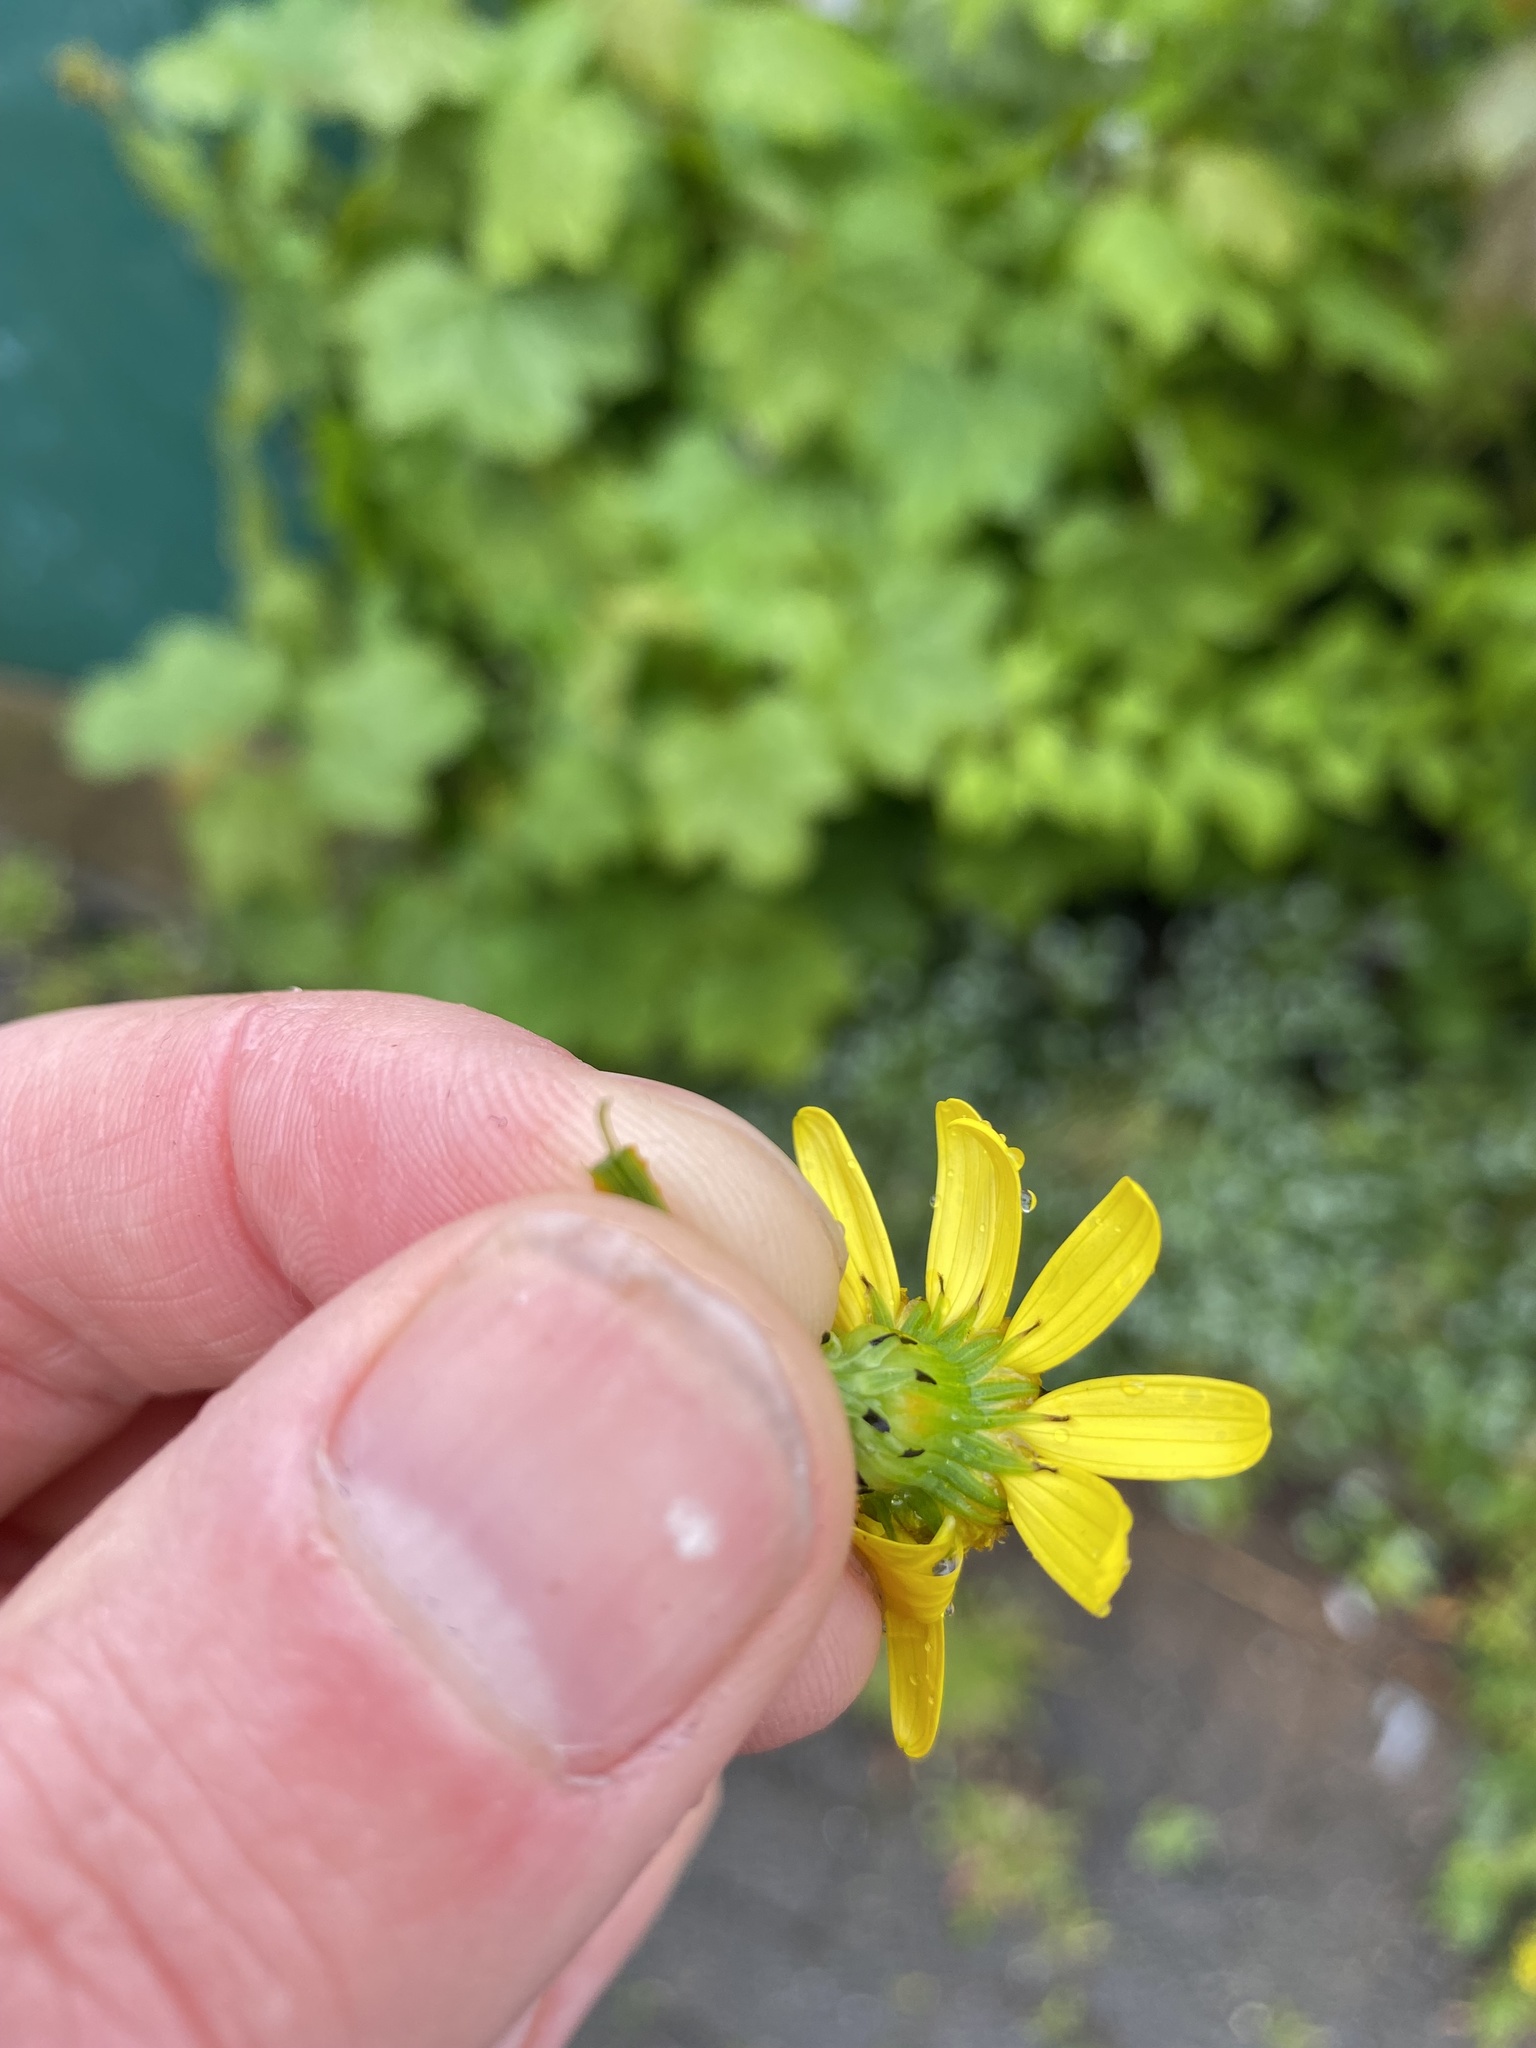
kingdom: Plantae
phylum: Tracheophyta
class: Magnoliopsida
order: Asterales
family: Asteraceae
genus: Senecio
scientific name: Senecio squalidus
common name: Oxford ragwort
